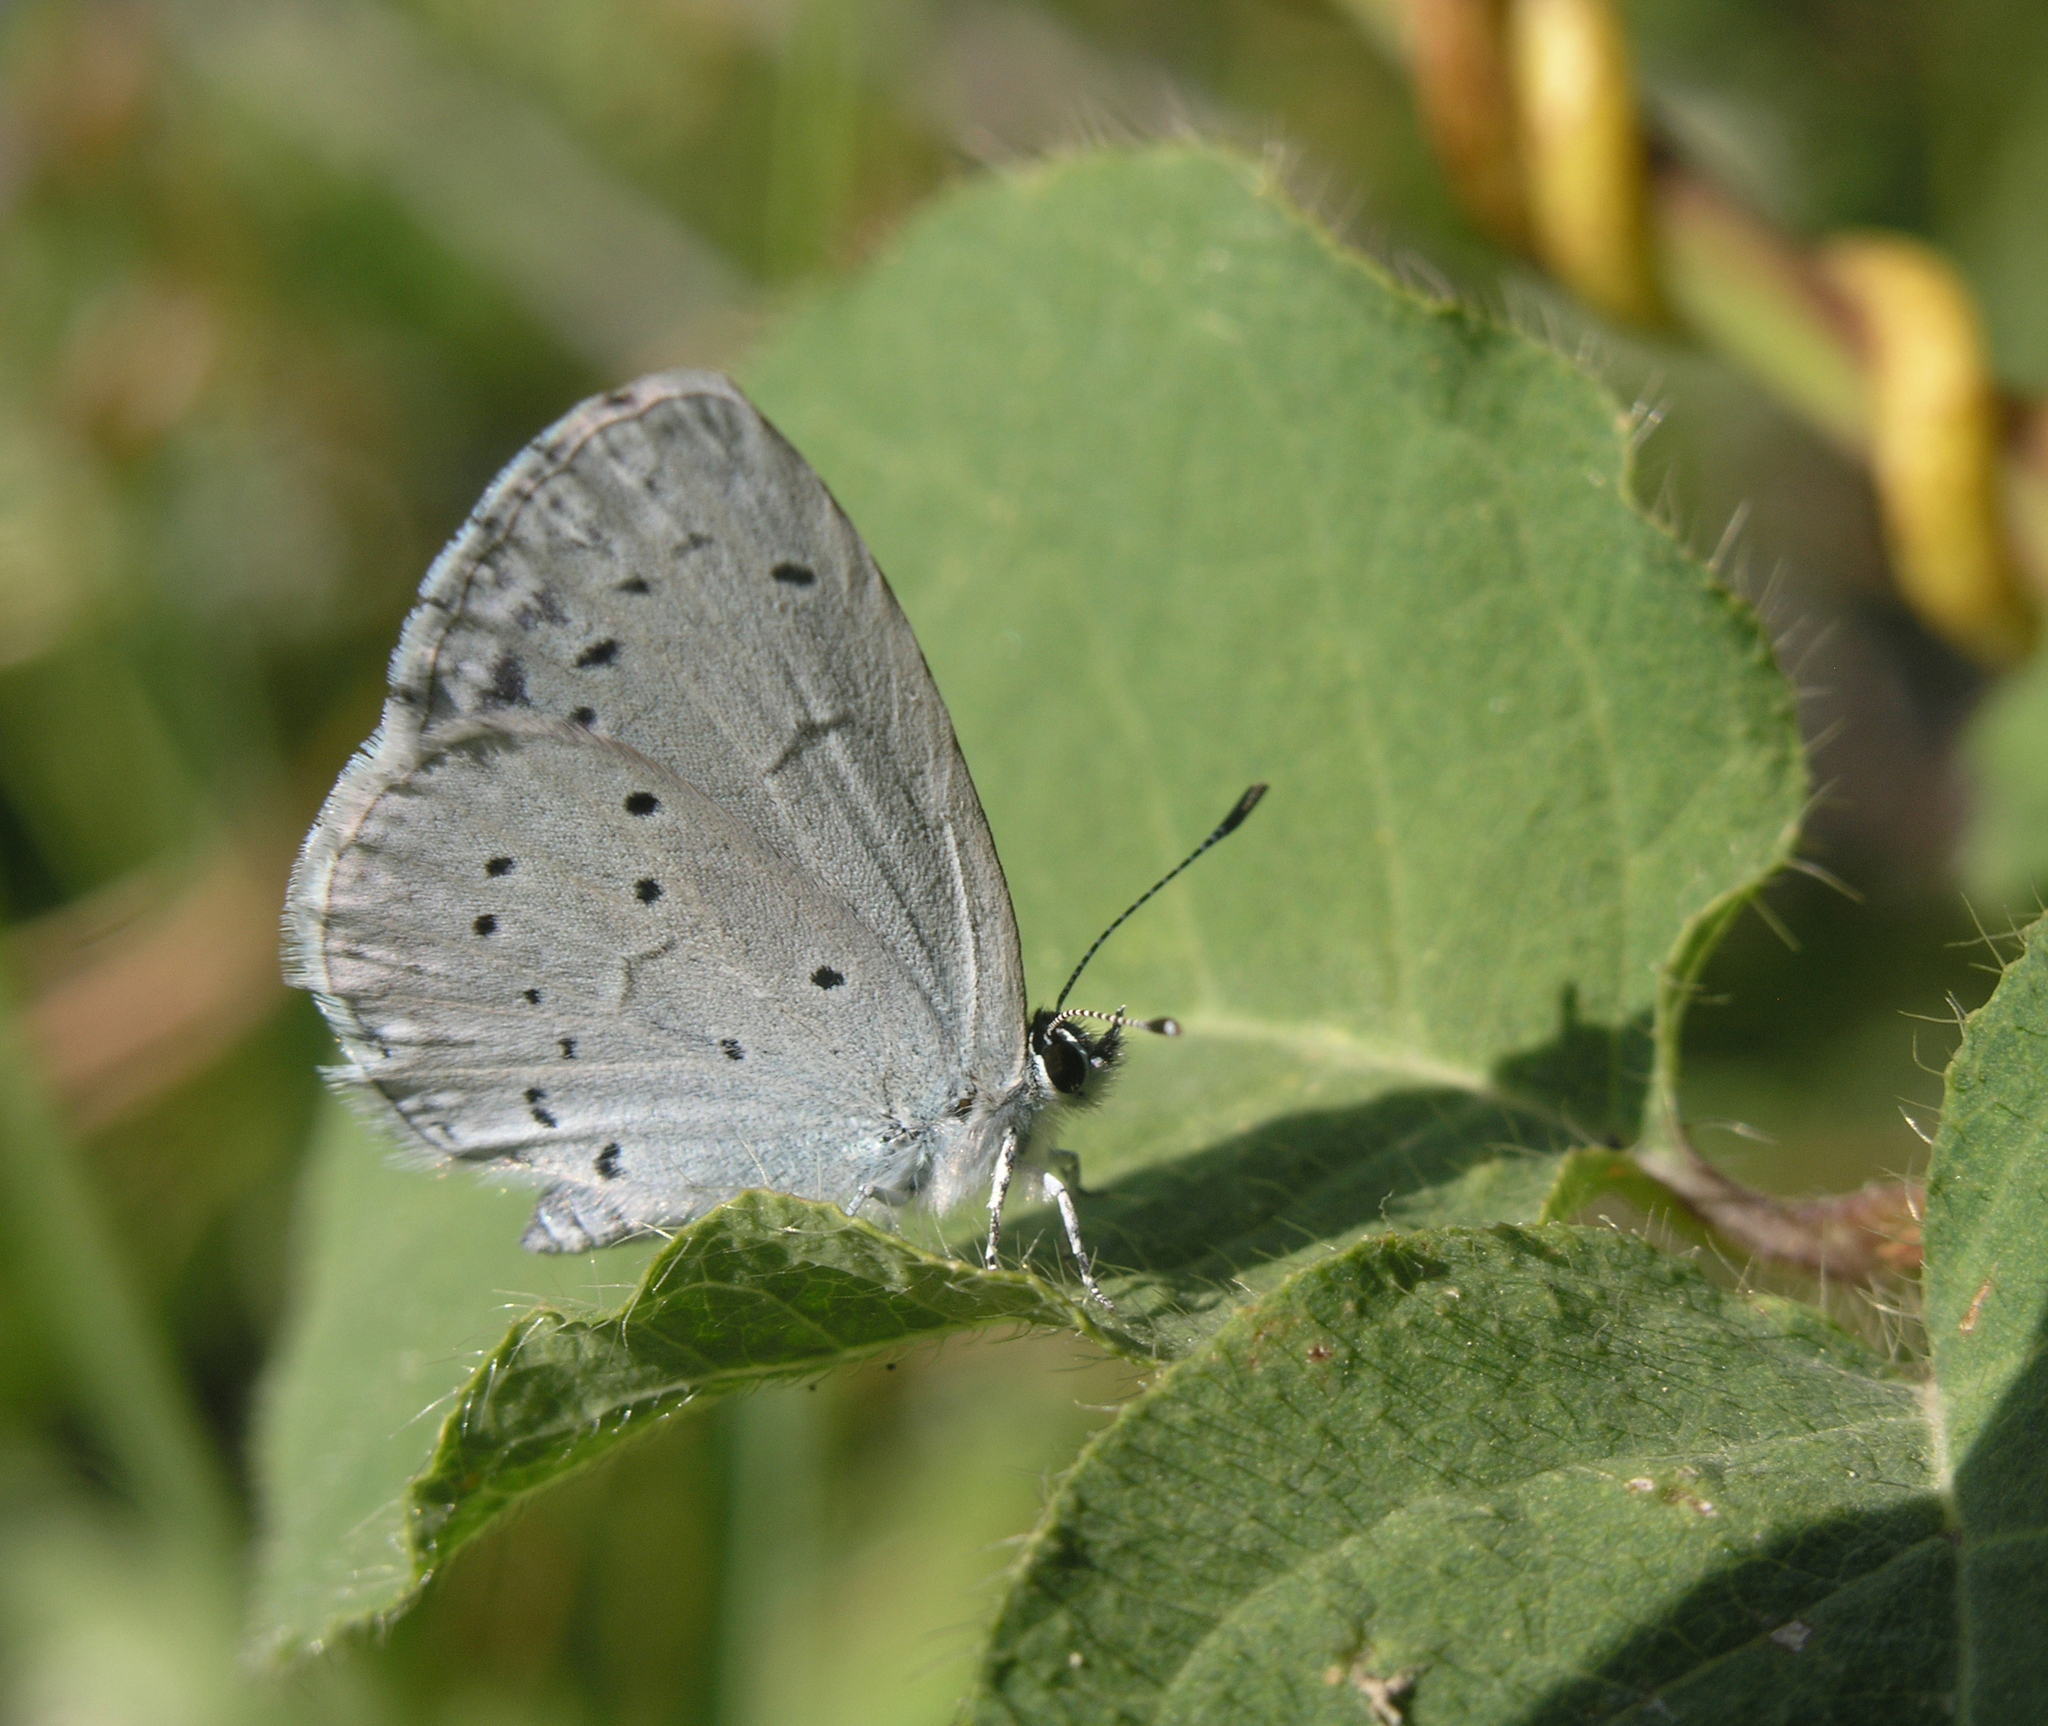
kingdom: Animalia
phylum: Arthropoda
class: Insecta
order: Lepidoptera
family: Lycaenidae
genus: Celastrina
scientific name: Celastrina argiolus
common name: Holly blue
